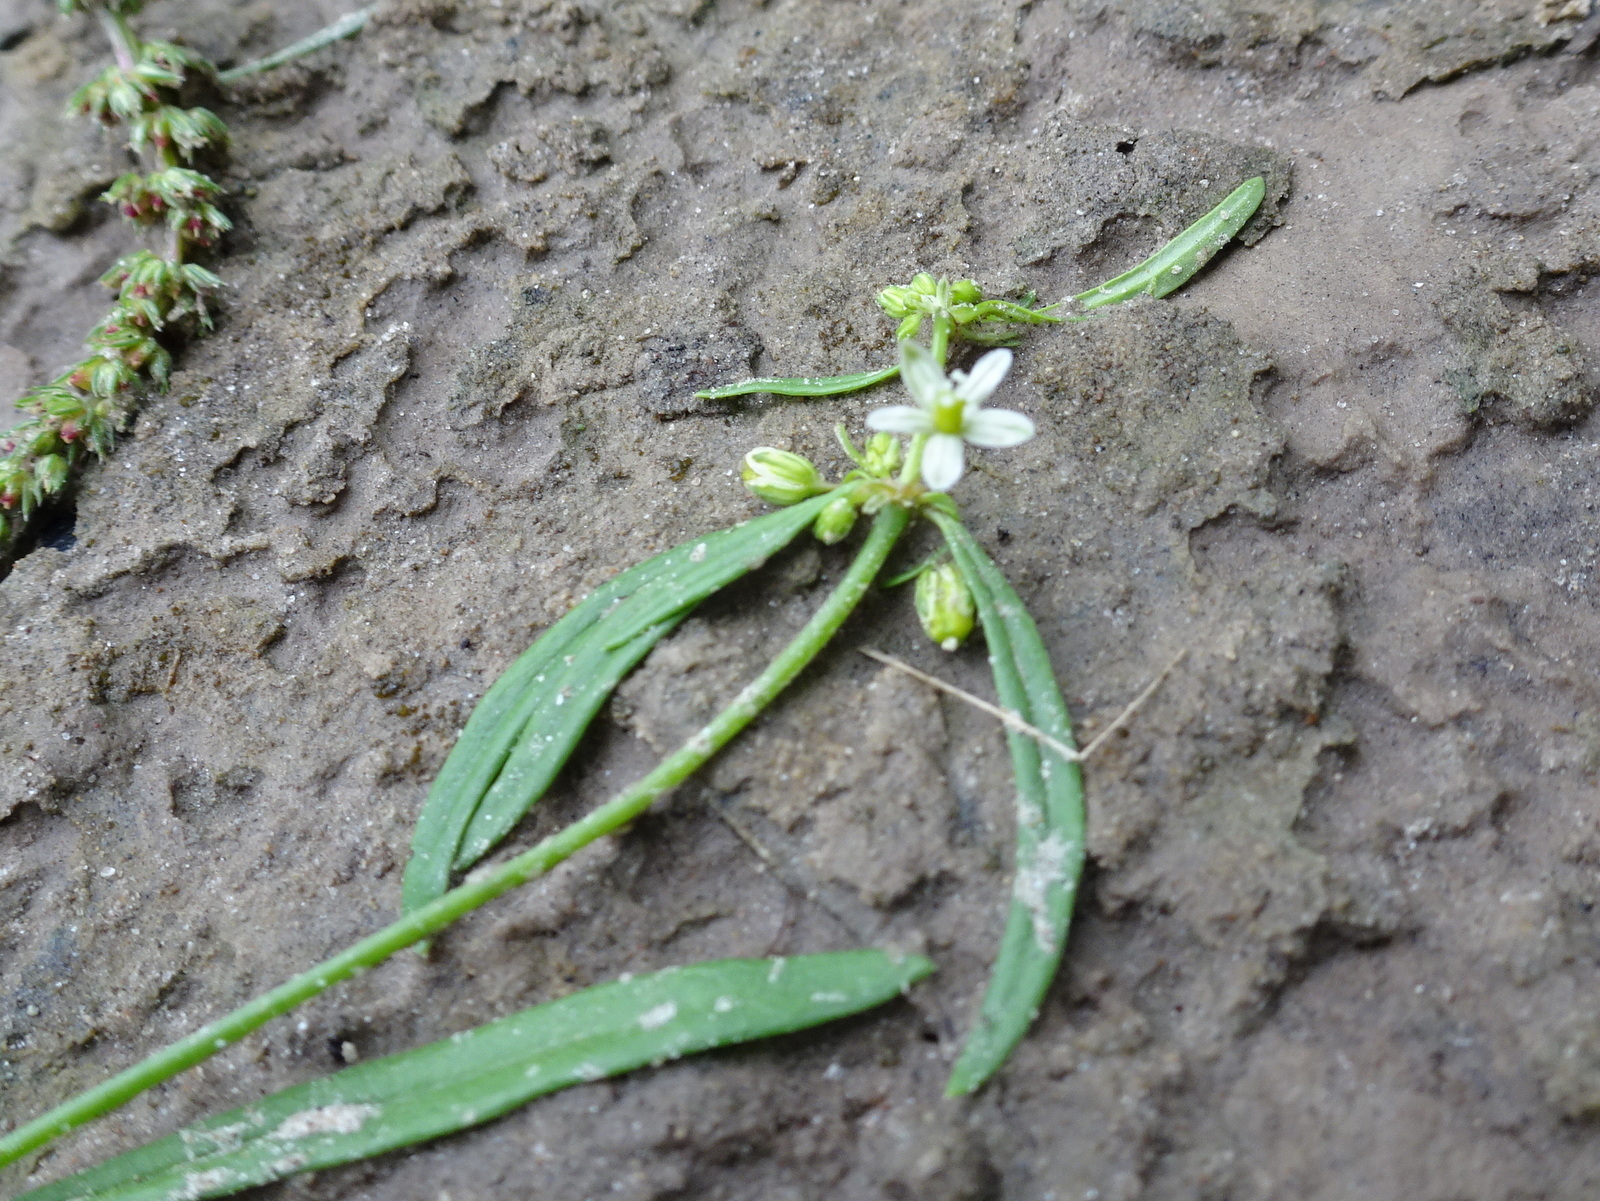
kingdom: Plantae
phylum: Tracheophyta
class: Magnoliopsida
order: Caryophyllales
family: Molluginaceae
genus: Mollugo
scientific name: Mollugo verticillata
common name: Green carpetweed
